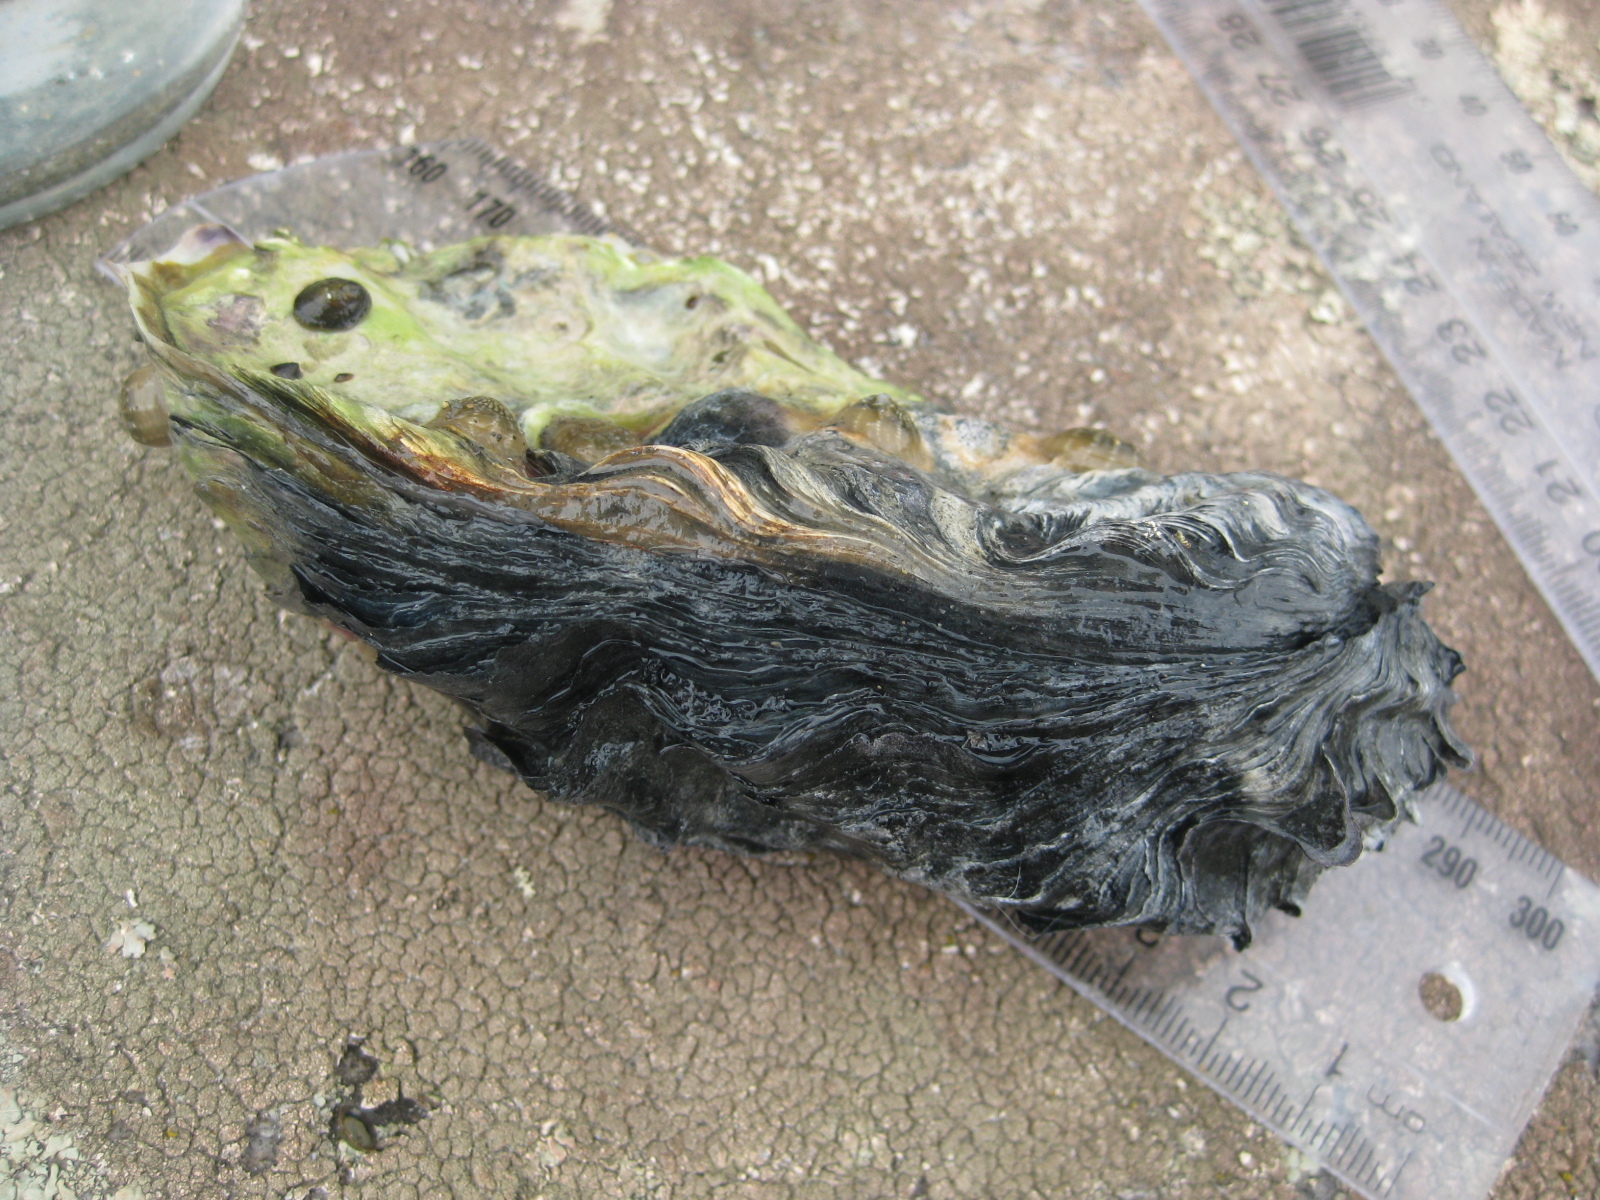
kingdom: Animalia
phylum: Mollusca
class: Bivalvia
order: Ostreida
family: Ostreidae
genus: Magallana
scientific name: Magallana gigas
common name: Pacific oyster
